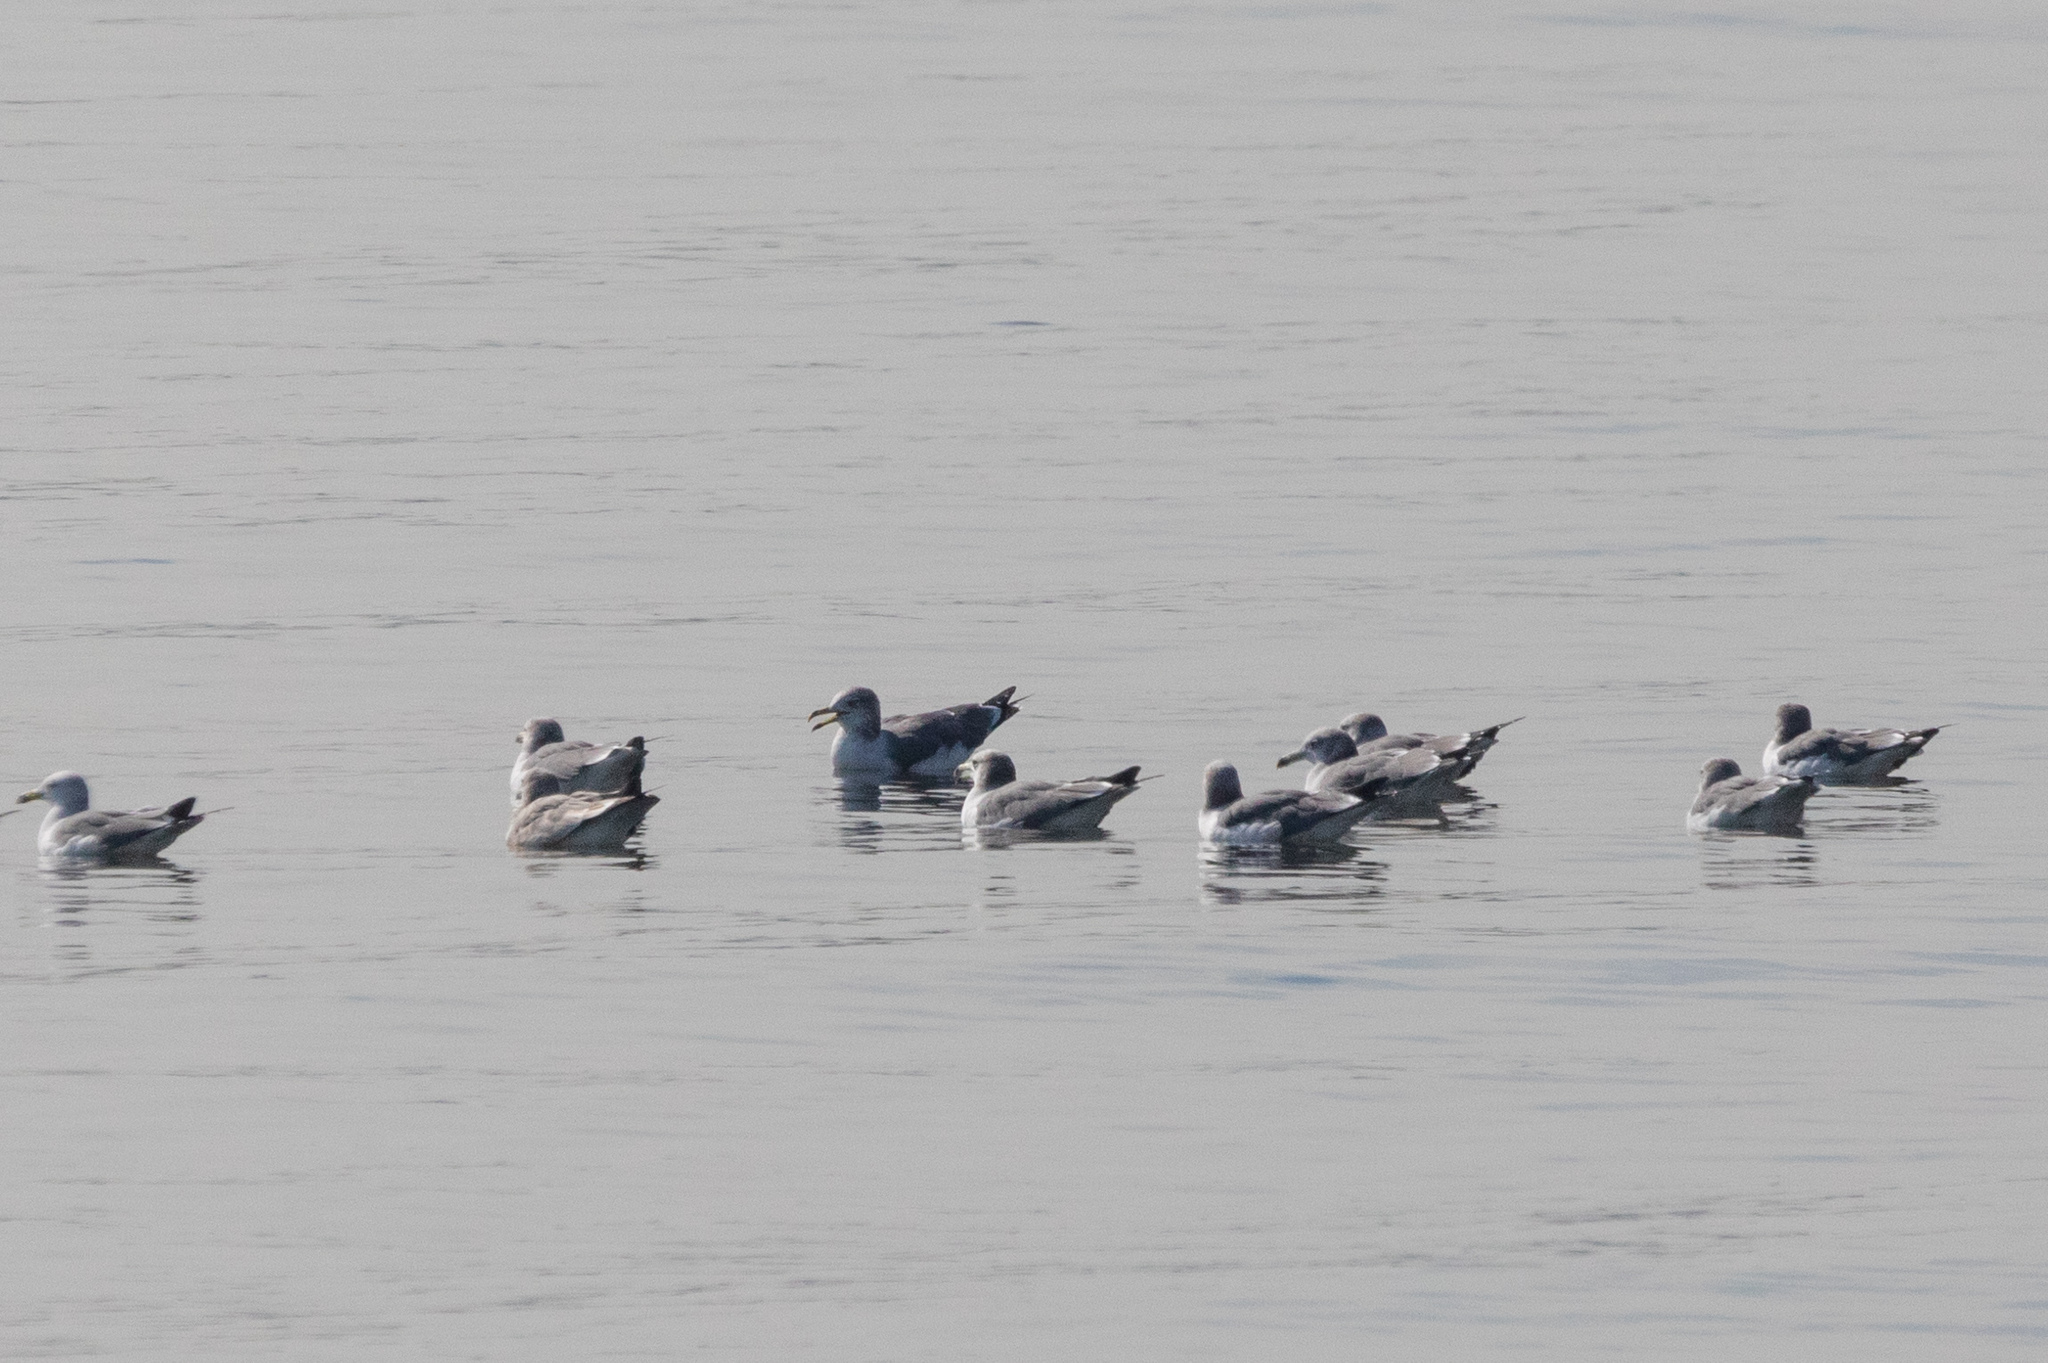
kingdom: Animalia
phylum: Chordata
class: Aves
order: Charadriiformes
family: Laridae
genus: Larus
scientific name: Larus crassirostris
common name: Black-tailed gull
